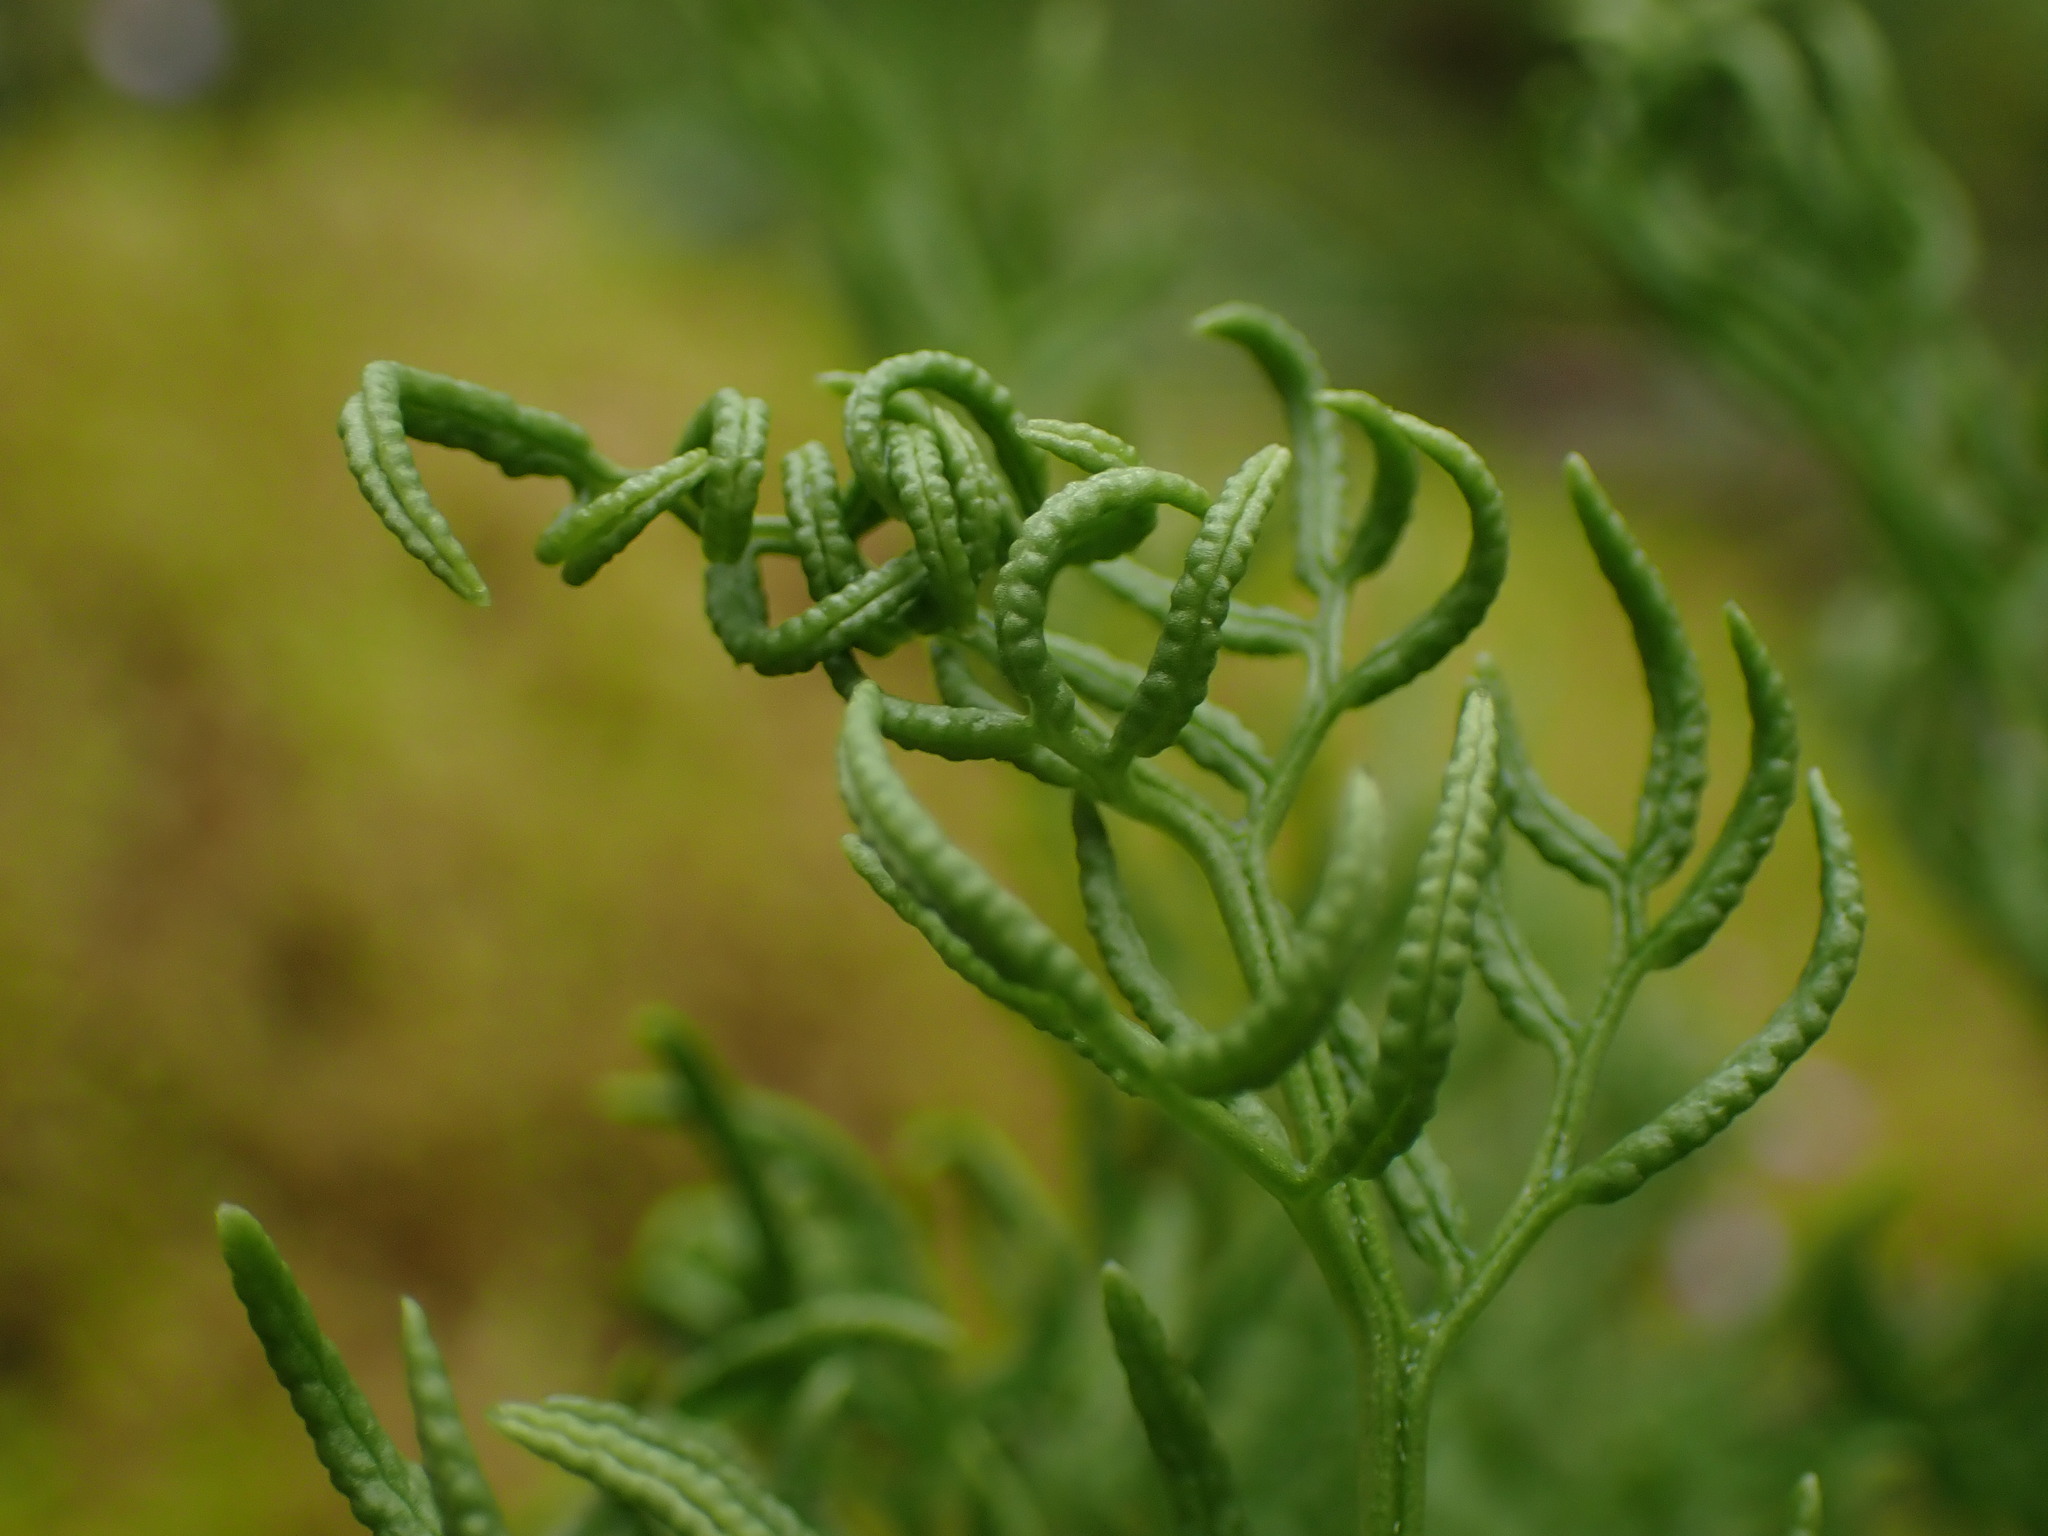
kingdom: Plantae
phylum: Tracheophyta
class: Polypodiopsida
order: Polypodiales
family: Pteridaceae
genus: Cryptogramma
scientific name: Cryptogramma acrostichoides
